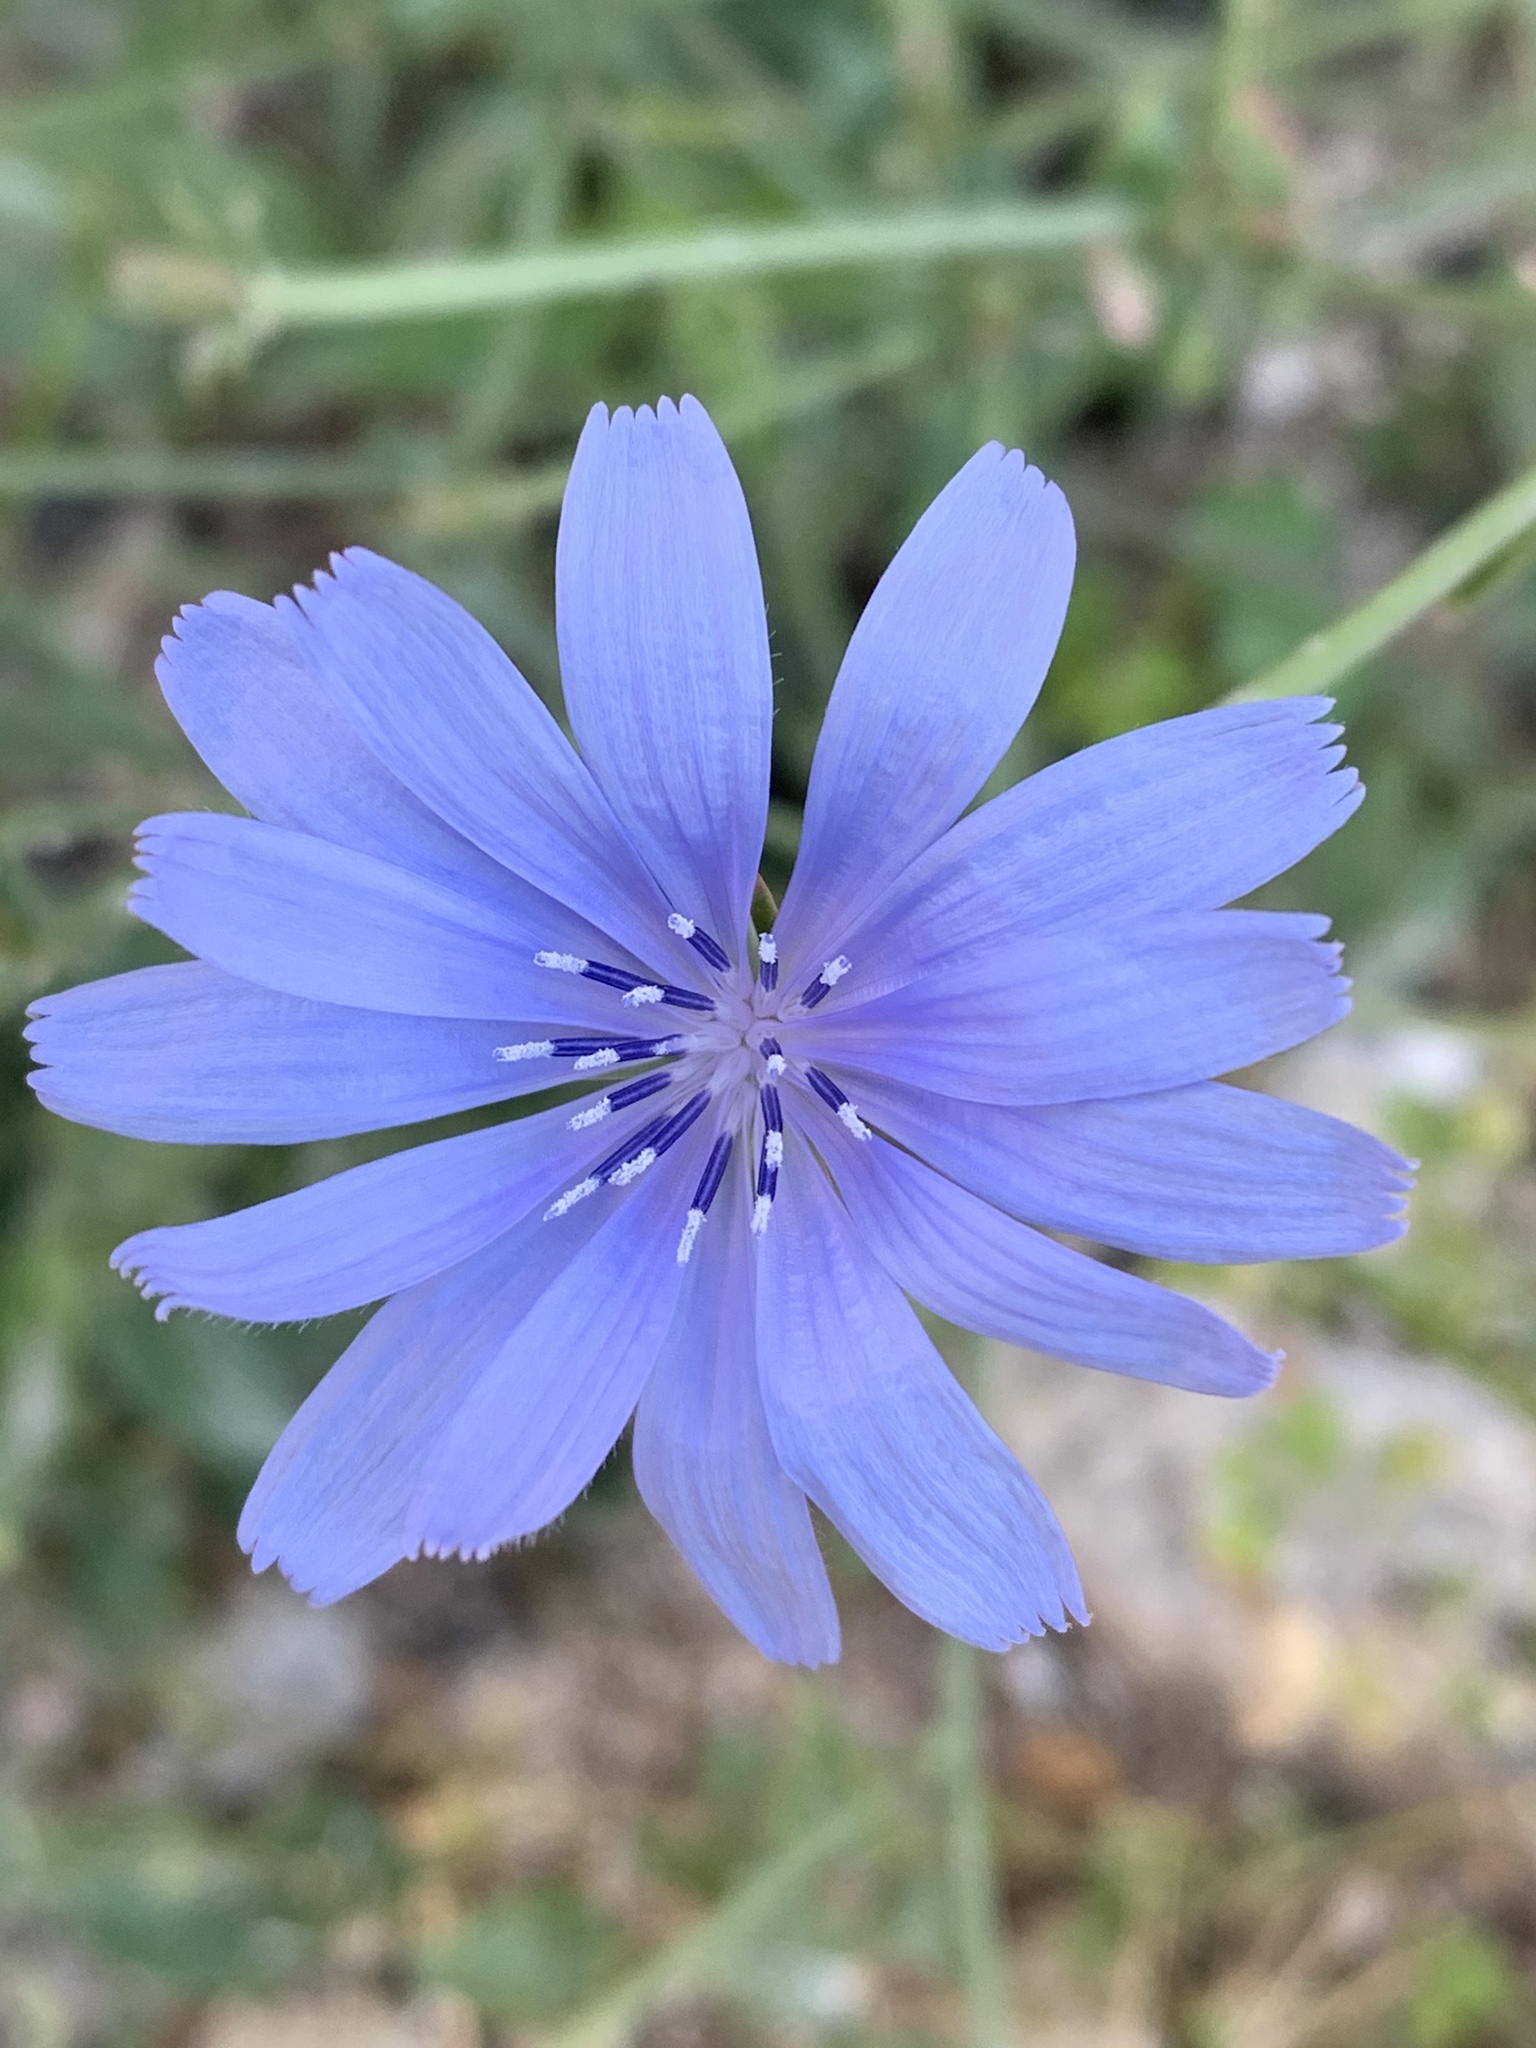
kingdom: Plantae
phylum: Tracheophyta
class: Magnoliopsida
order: Asterales
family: Asteraceae
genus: Cichorium
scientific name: Cichorium intybus
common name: Chicory
